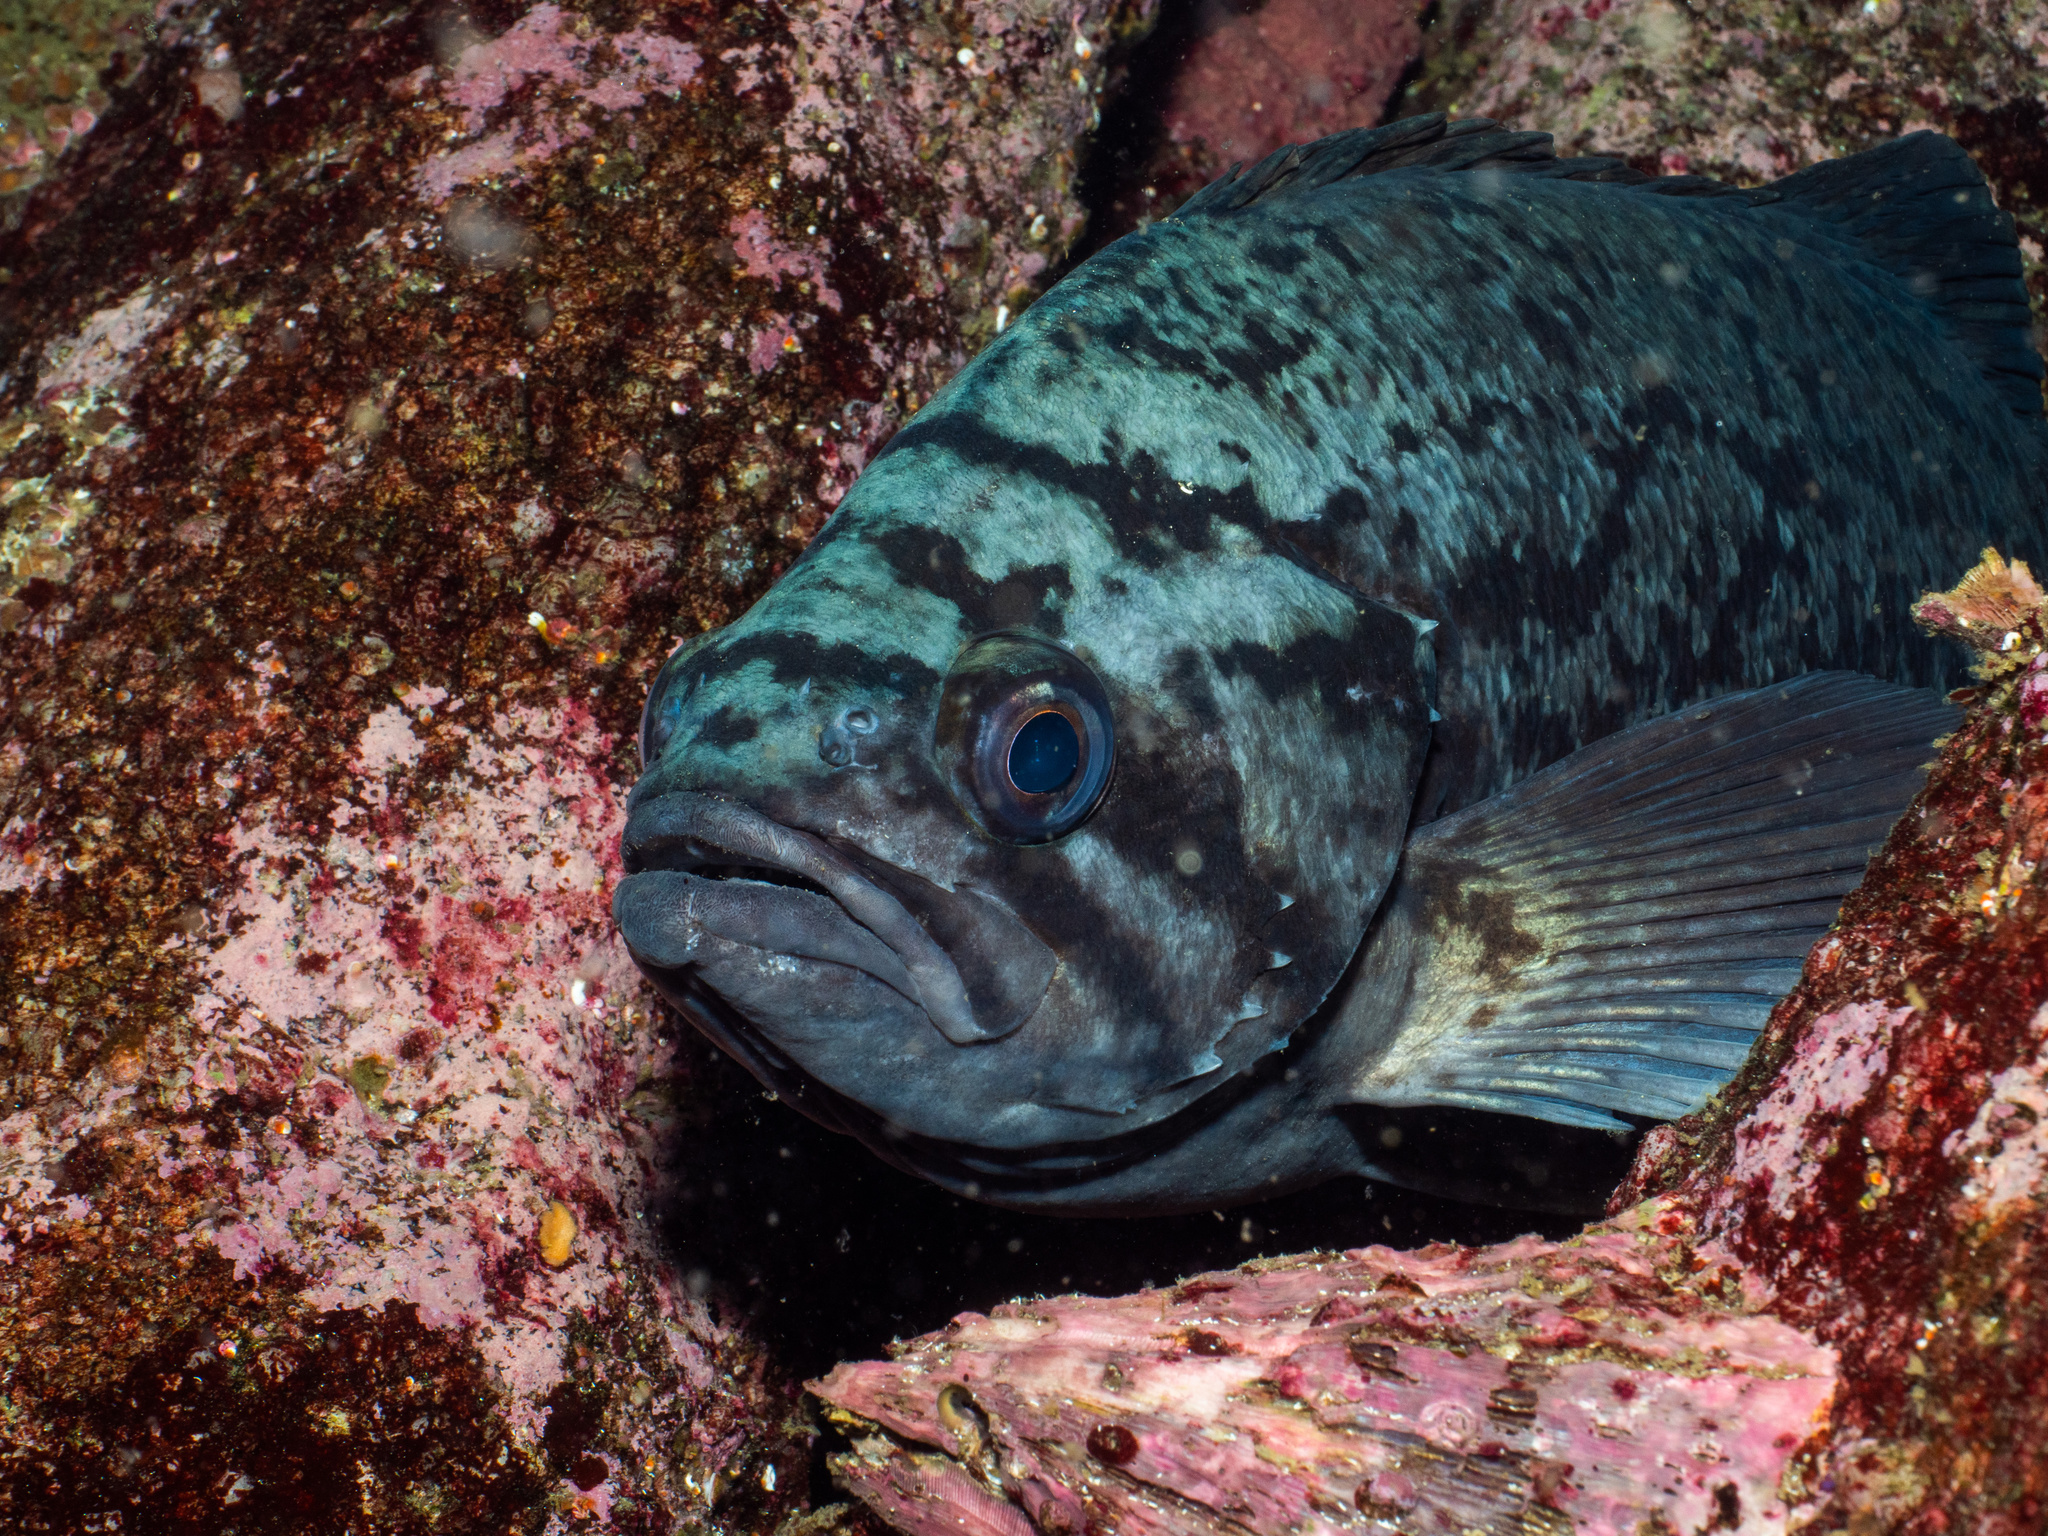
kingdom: Animalia
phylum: Chordata
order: Scorpaeniformes
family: Sebastidae
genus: Sebastes
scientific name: Sebastes mystinus
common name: Blue rockfish
